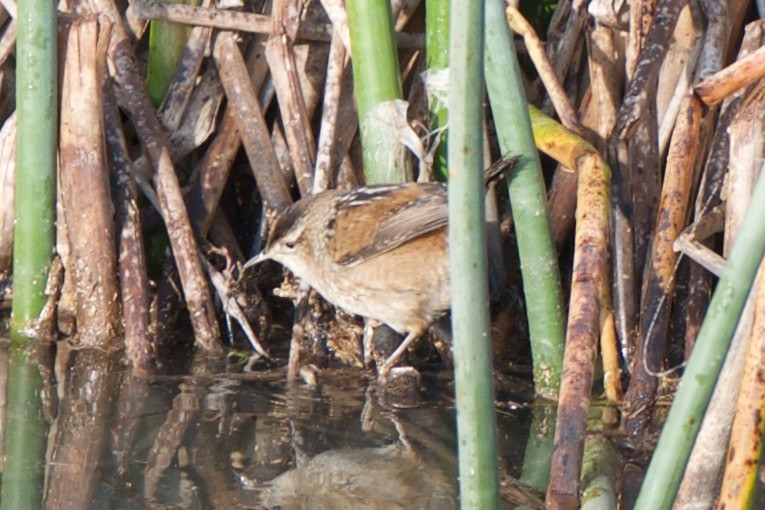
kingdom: Animalia
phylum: Chordata
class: Aves
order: Passeriformes
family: Troglodytidae
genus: Cistothorus
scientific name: Cistothorus palustris
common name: Marsh wren
